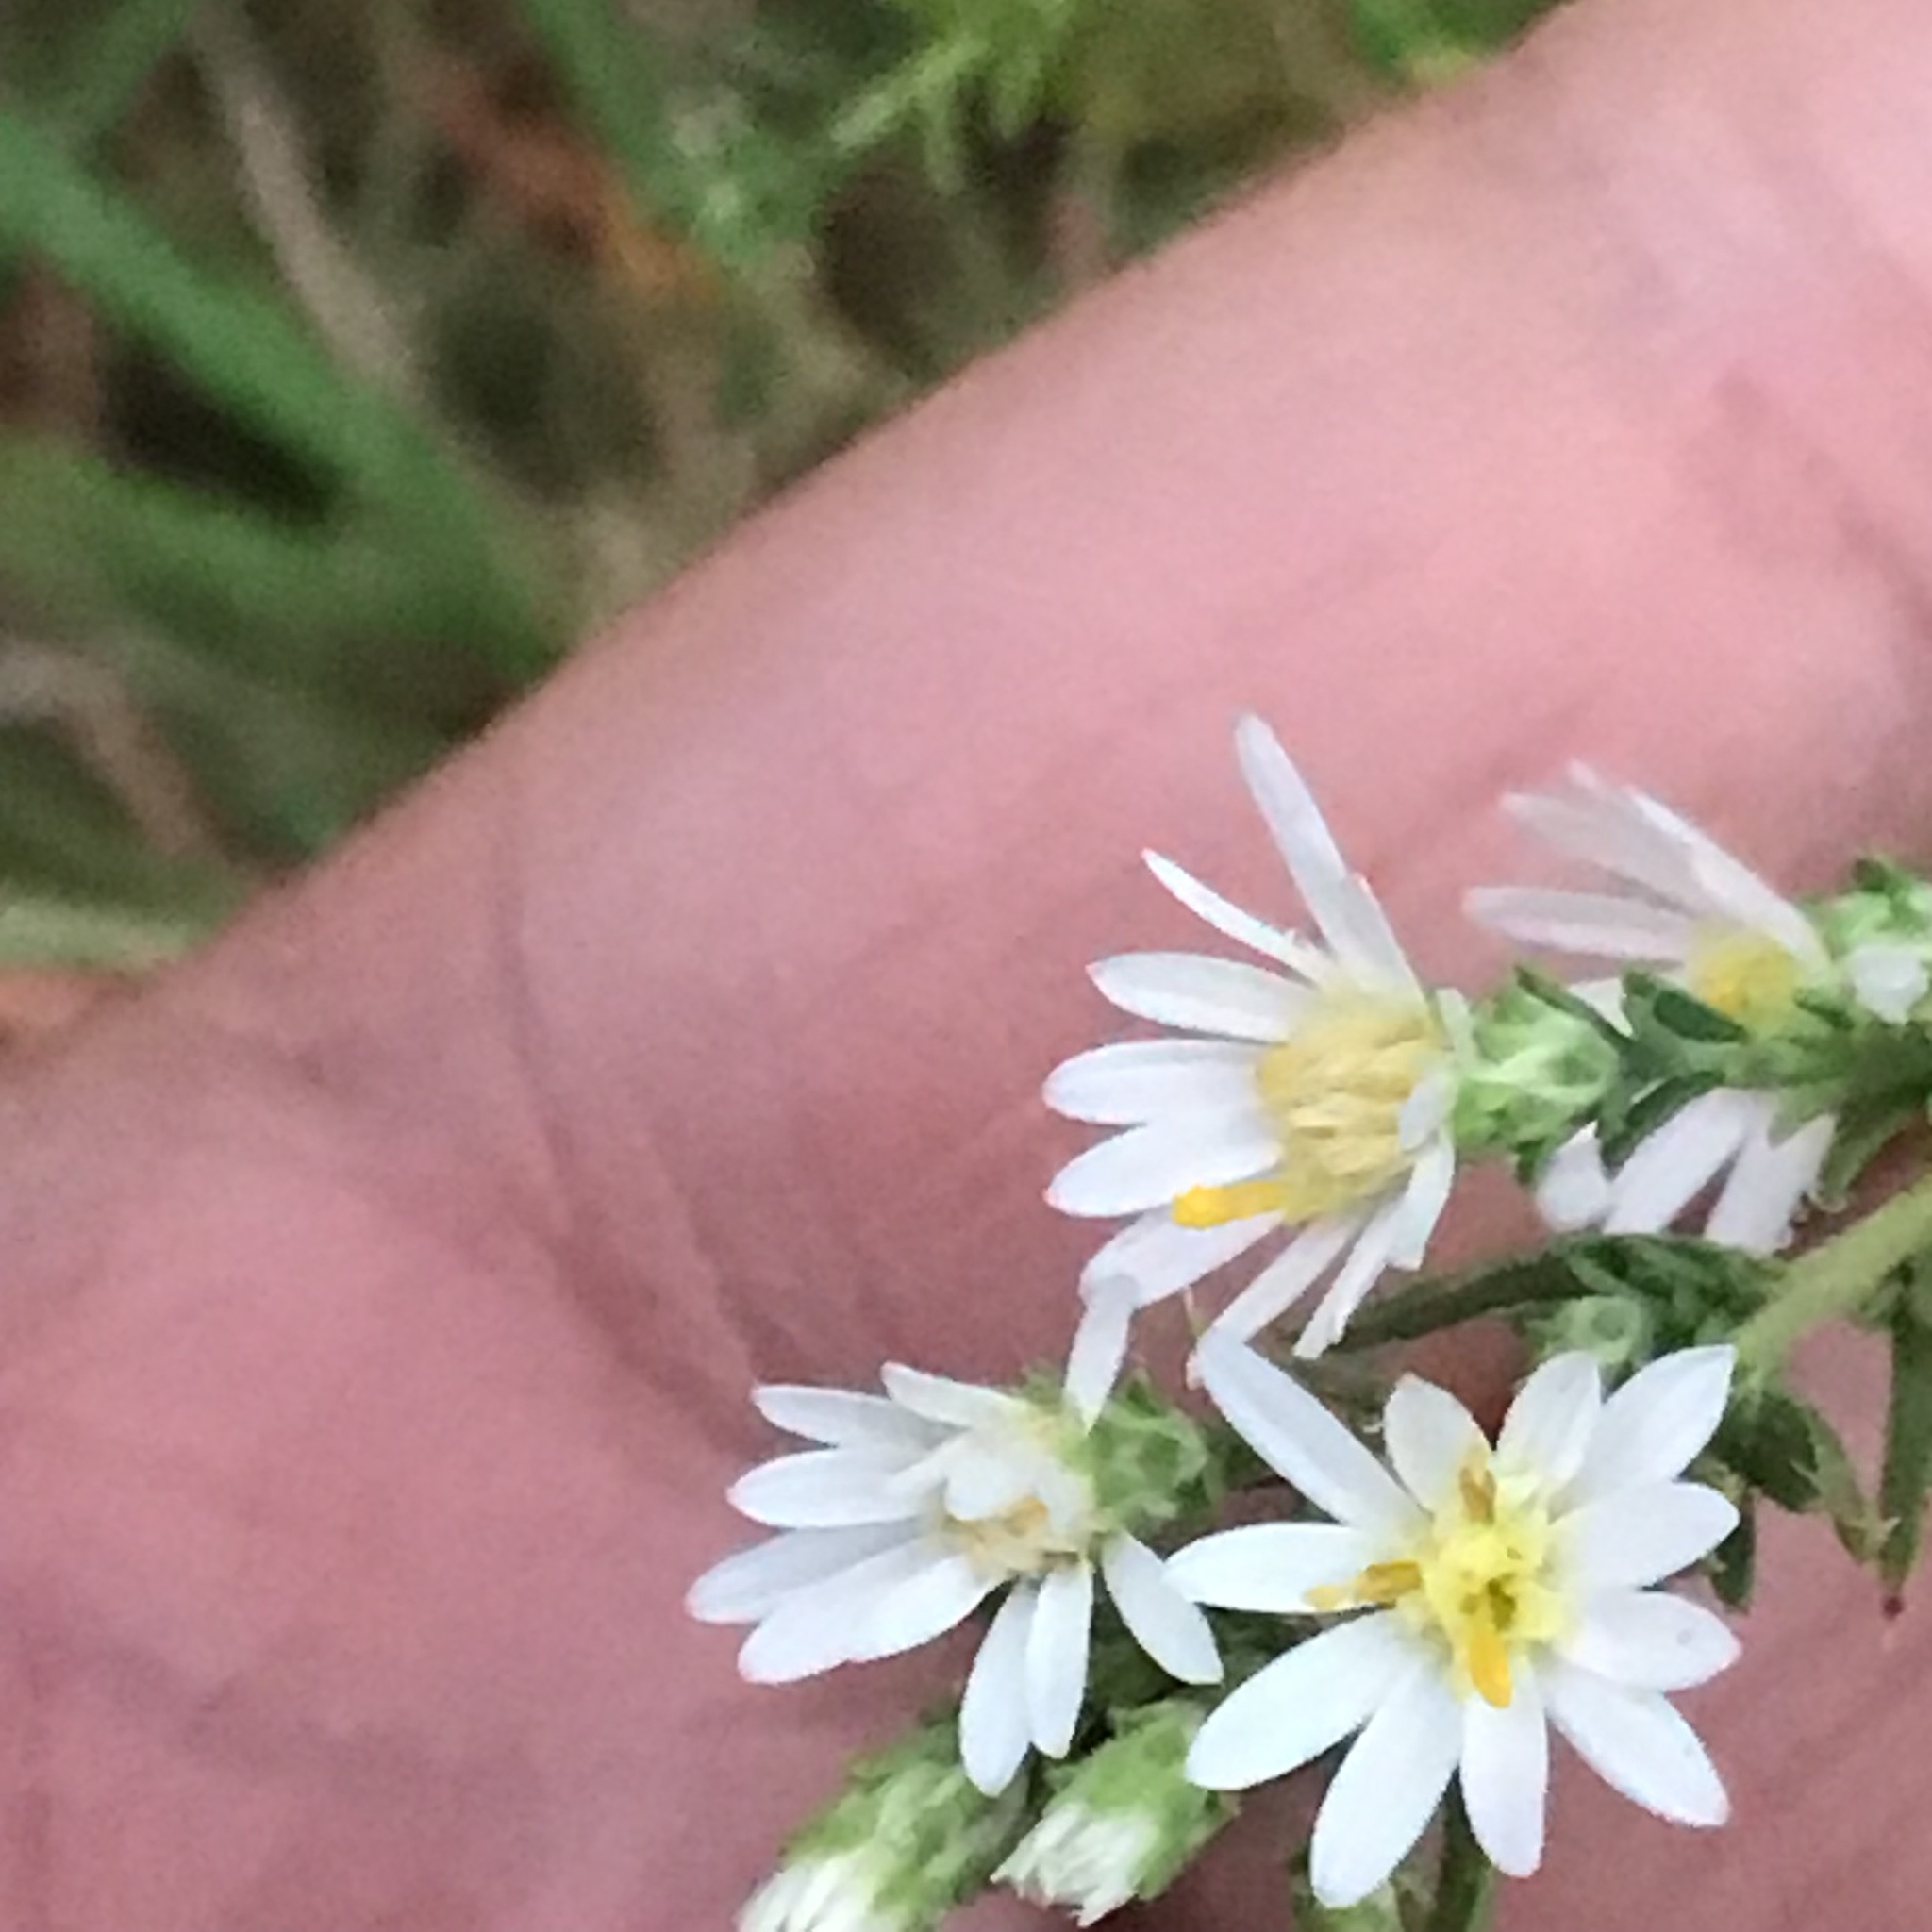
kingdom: Plantae
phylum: Tracheophyta
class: Magnoliopsida
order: Asterales
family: Asteraceae
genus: Symphyotrichum
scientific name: Symphyotrichum ericoides
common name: Heath aster
